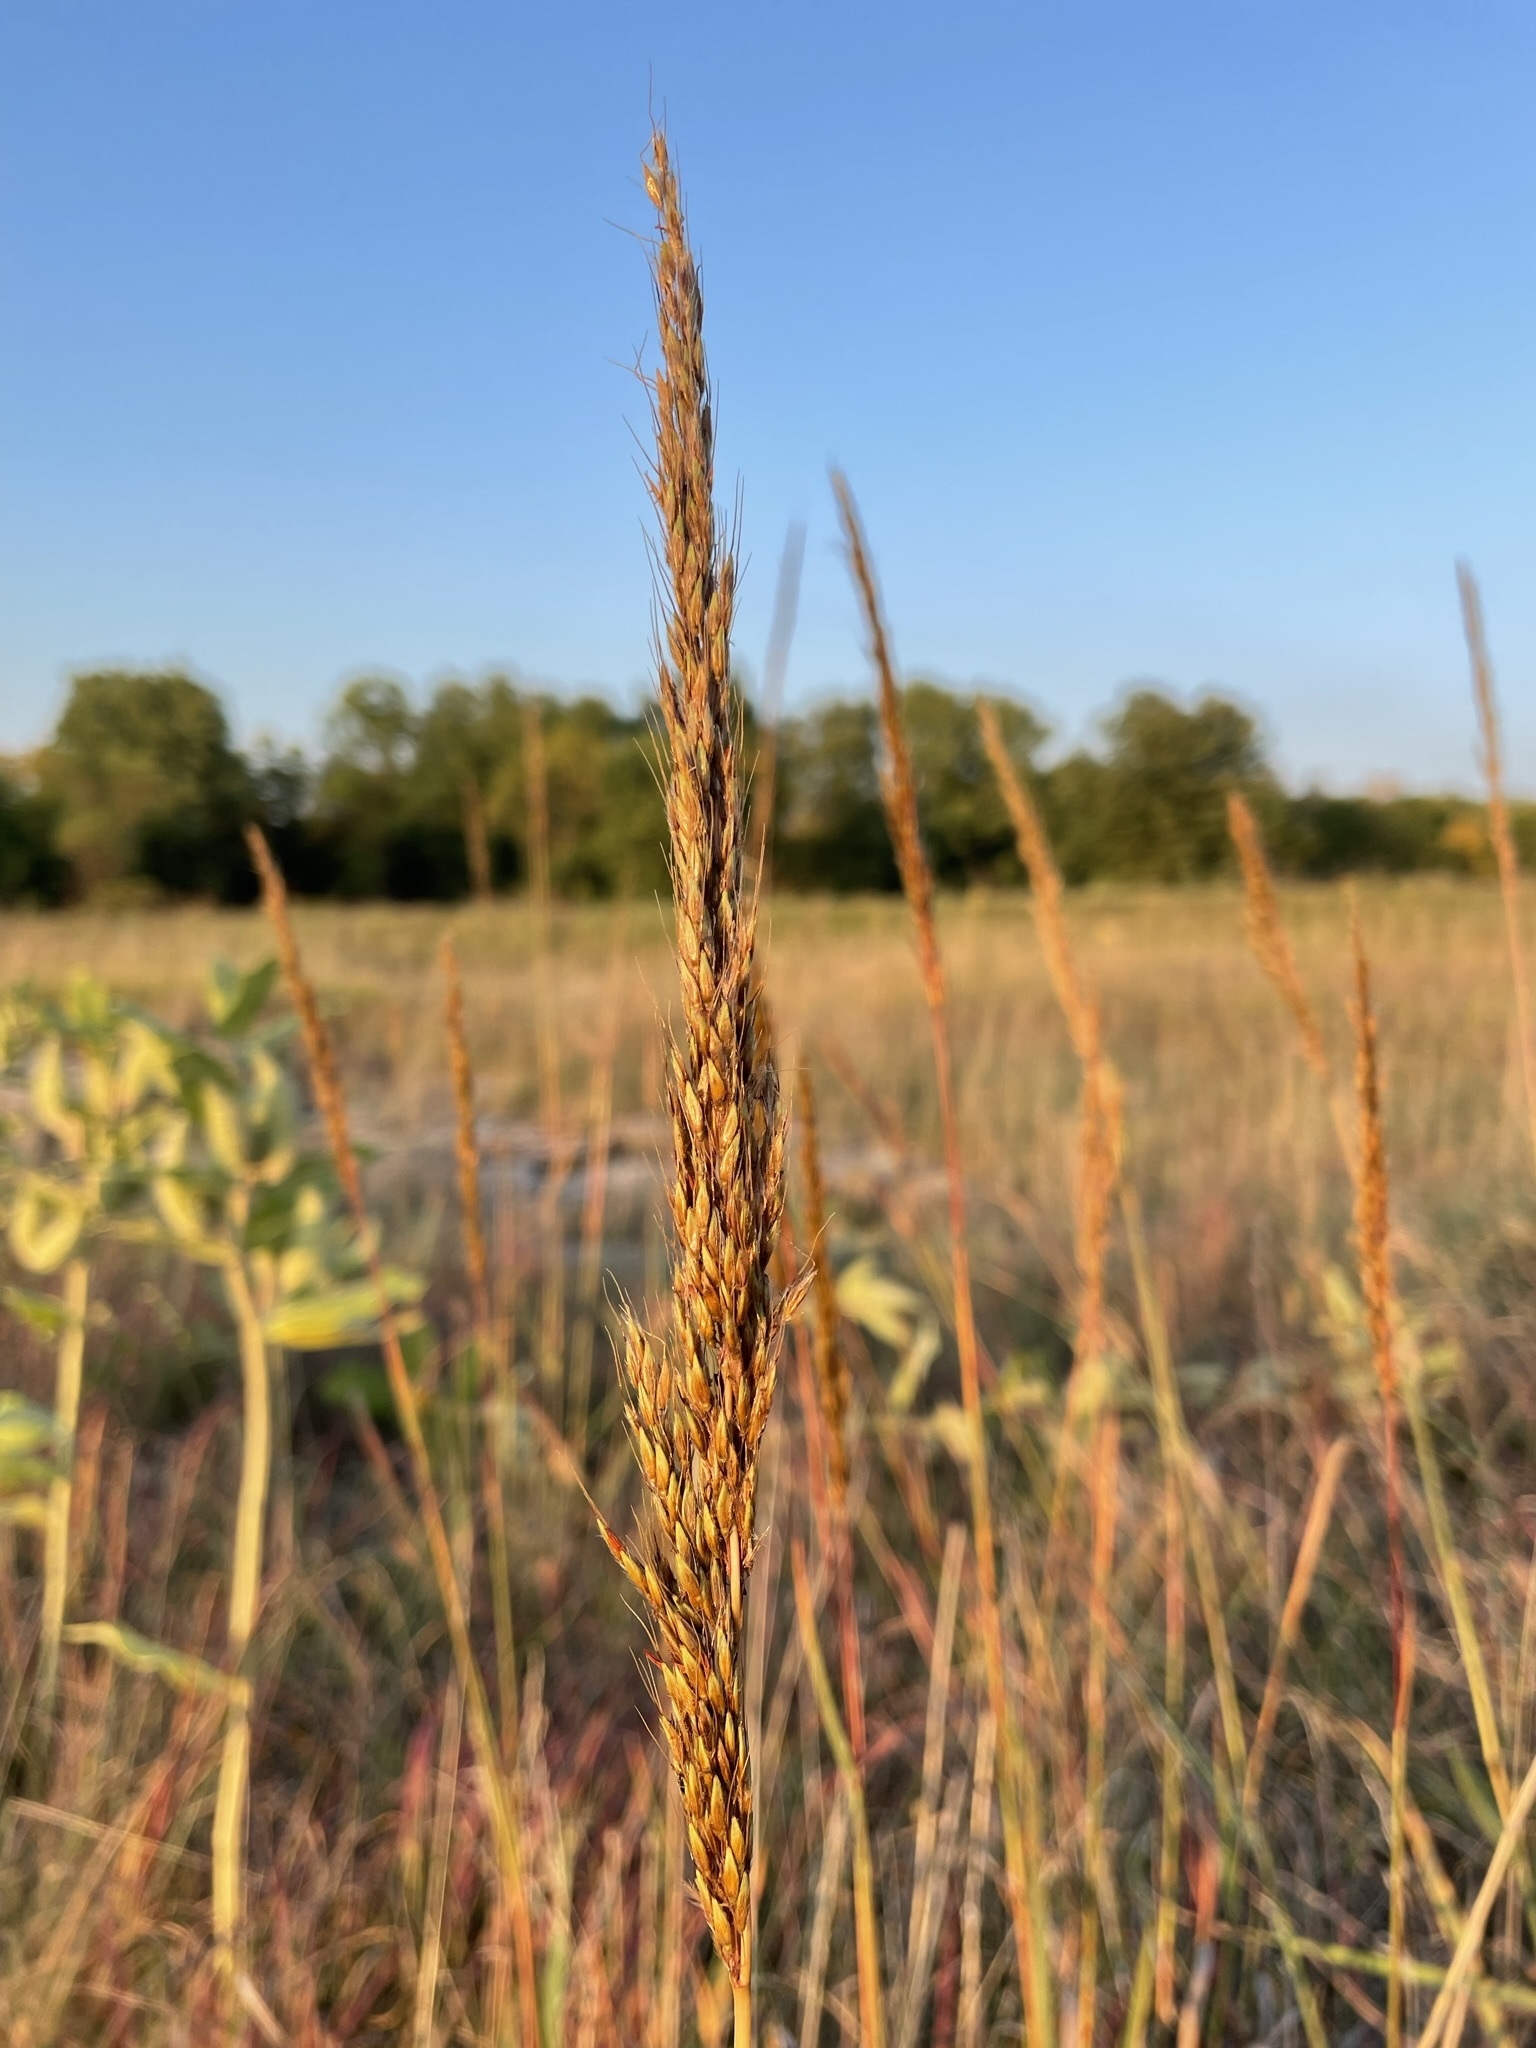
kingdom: Plantae
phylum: Tracheophyta
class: Liliopsida
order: Poales
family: Poaceae
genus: Sorghastrum
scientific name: Sorghastrum nutans
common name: Indian grass
